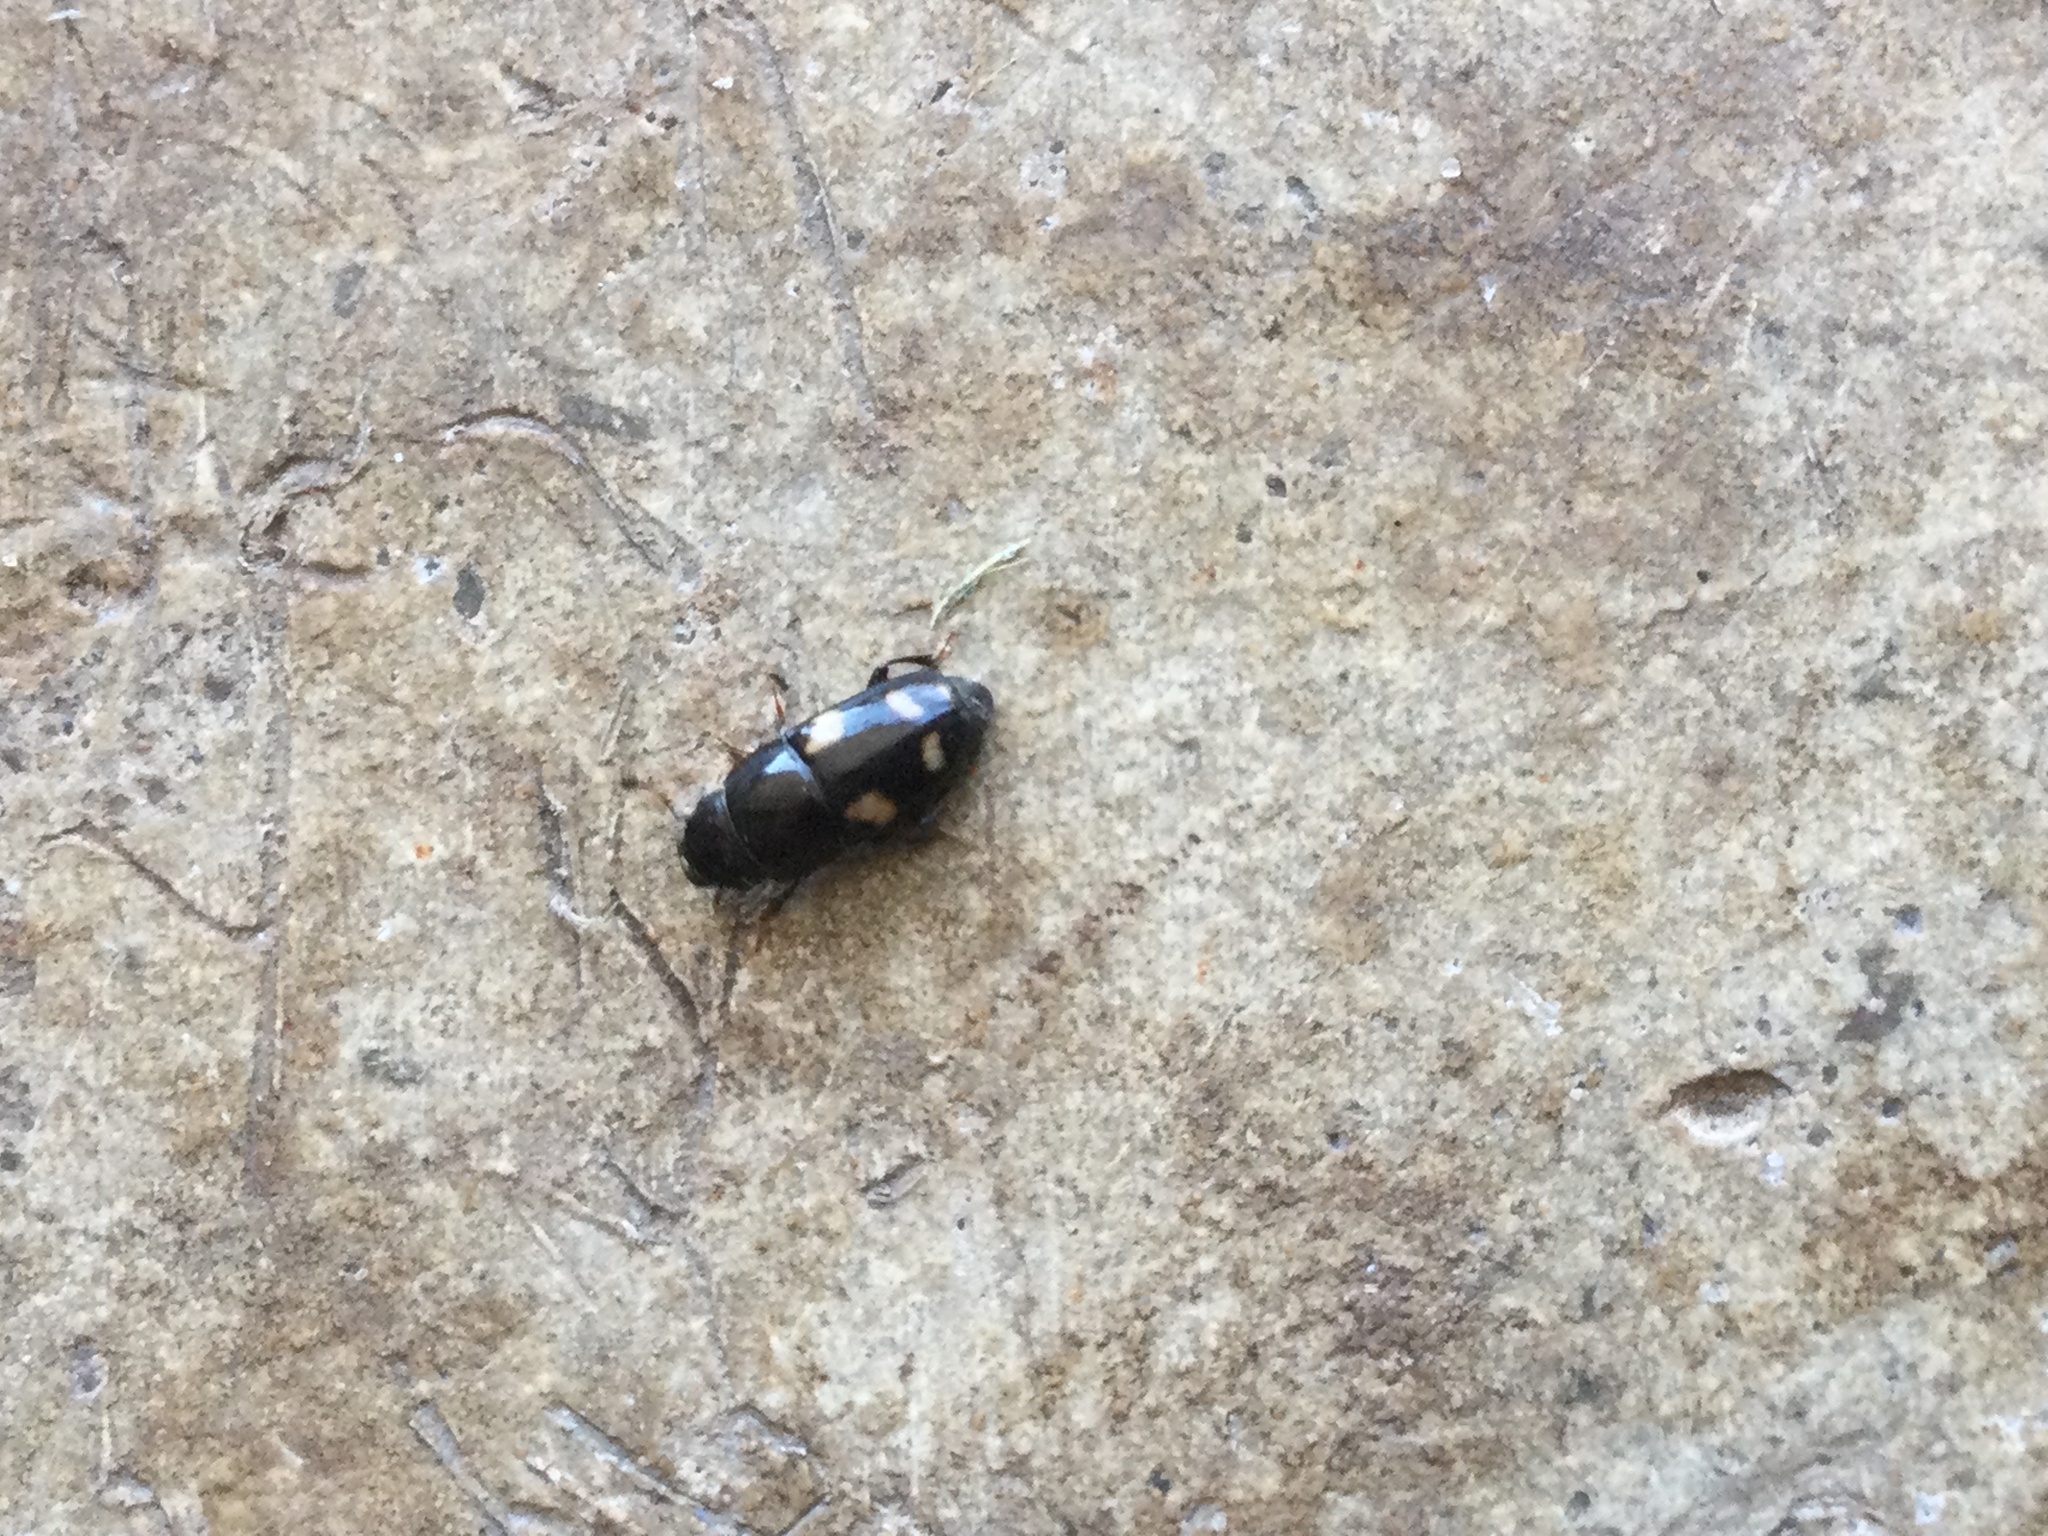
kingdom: Animalia
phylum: Arthropoda
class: Insecta
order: Coleoptera
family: Nitidulidae
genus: Glischrochilus
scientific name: Glischrochilus quadrisignatus
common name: Picnic beetle
